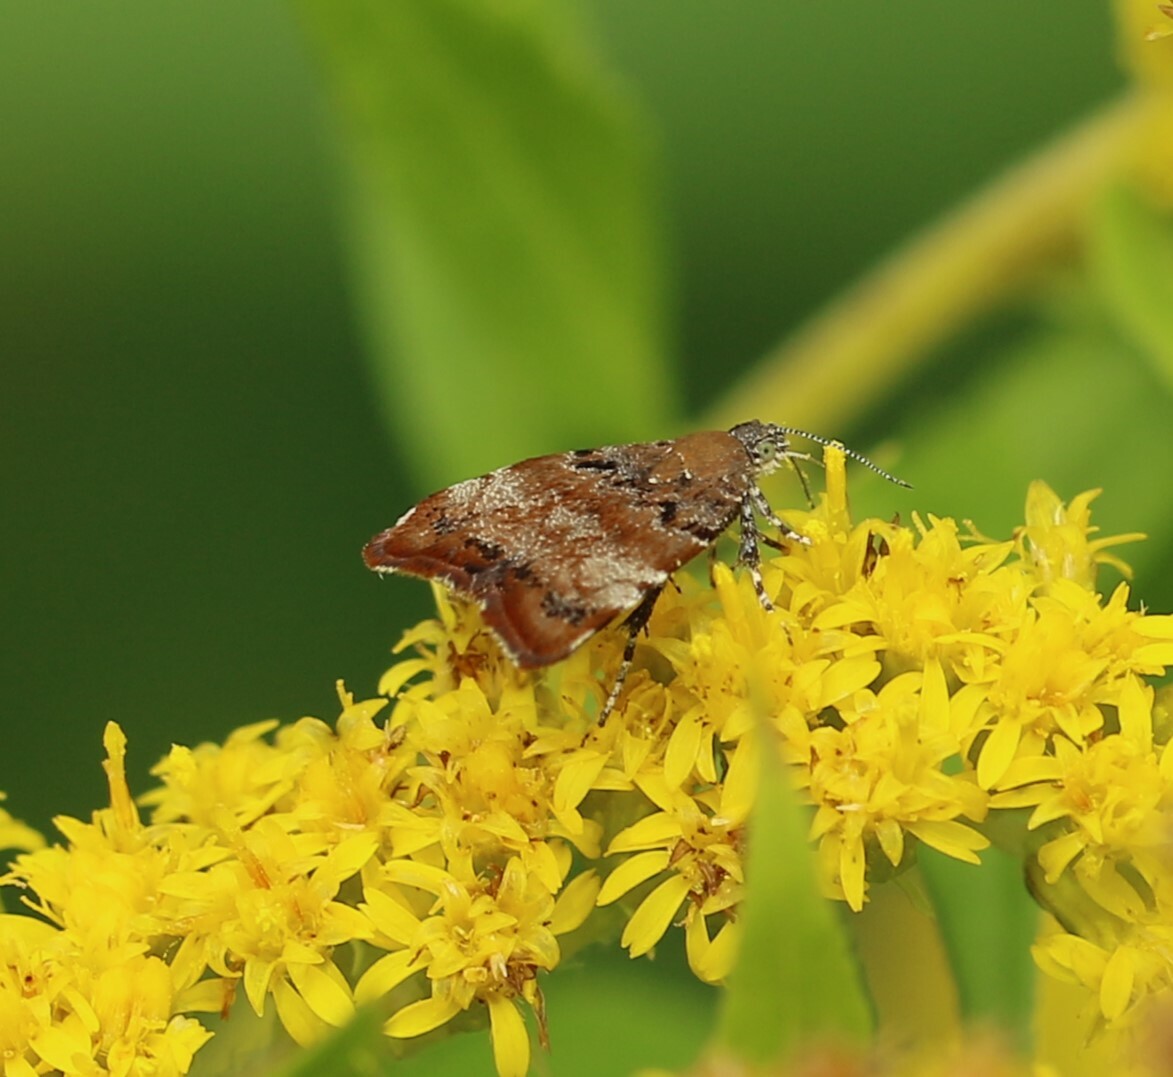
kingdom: Animalia
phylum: Arthropoda
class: Insecta
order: Lepidoptera
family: Choreutidae
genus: Choreutis
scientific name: Choreutis pariana
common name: Apple leaf skeletoniser
